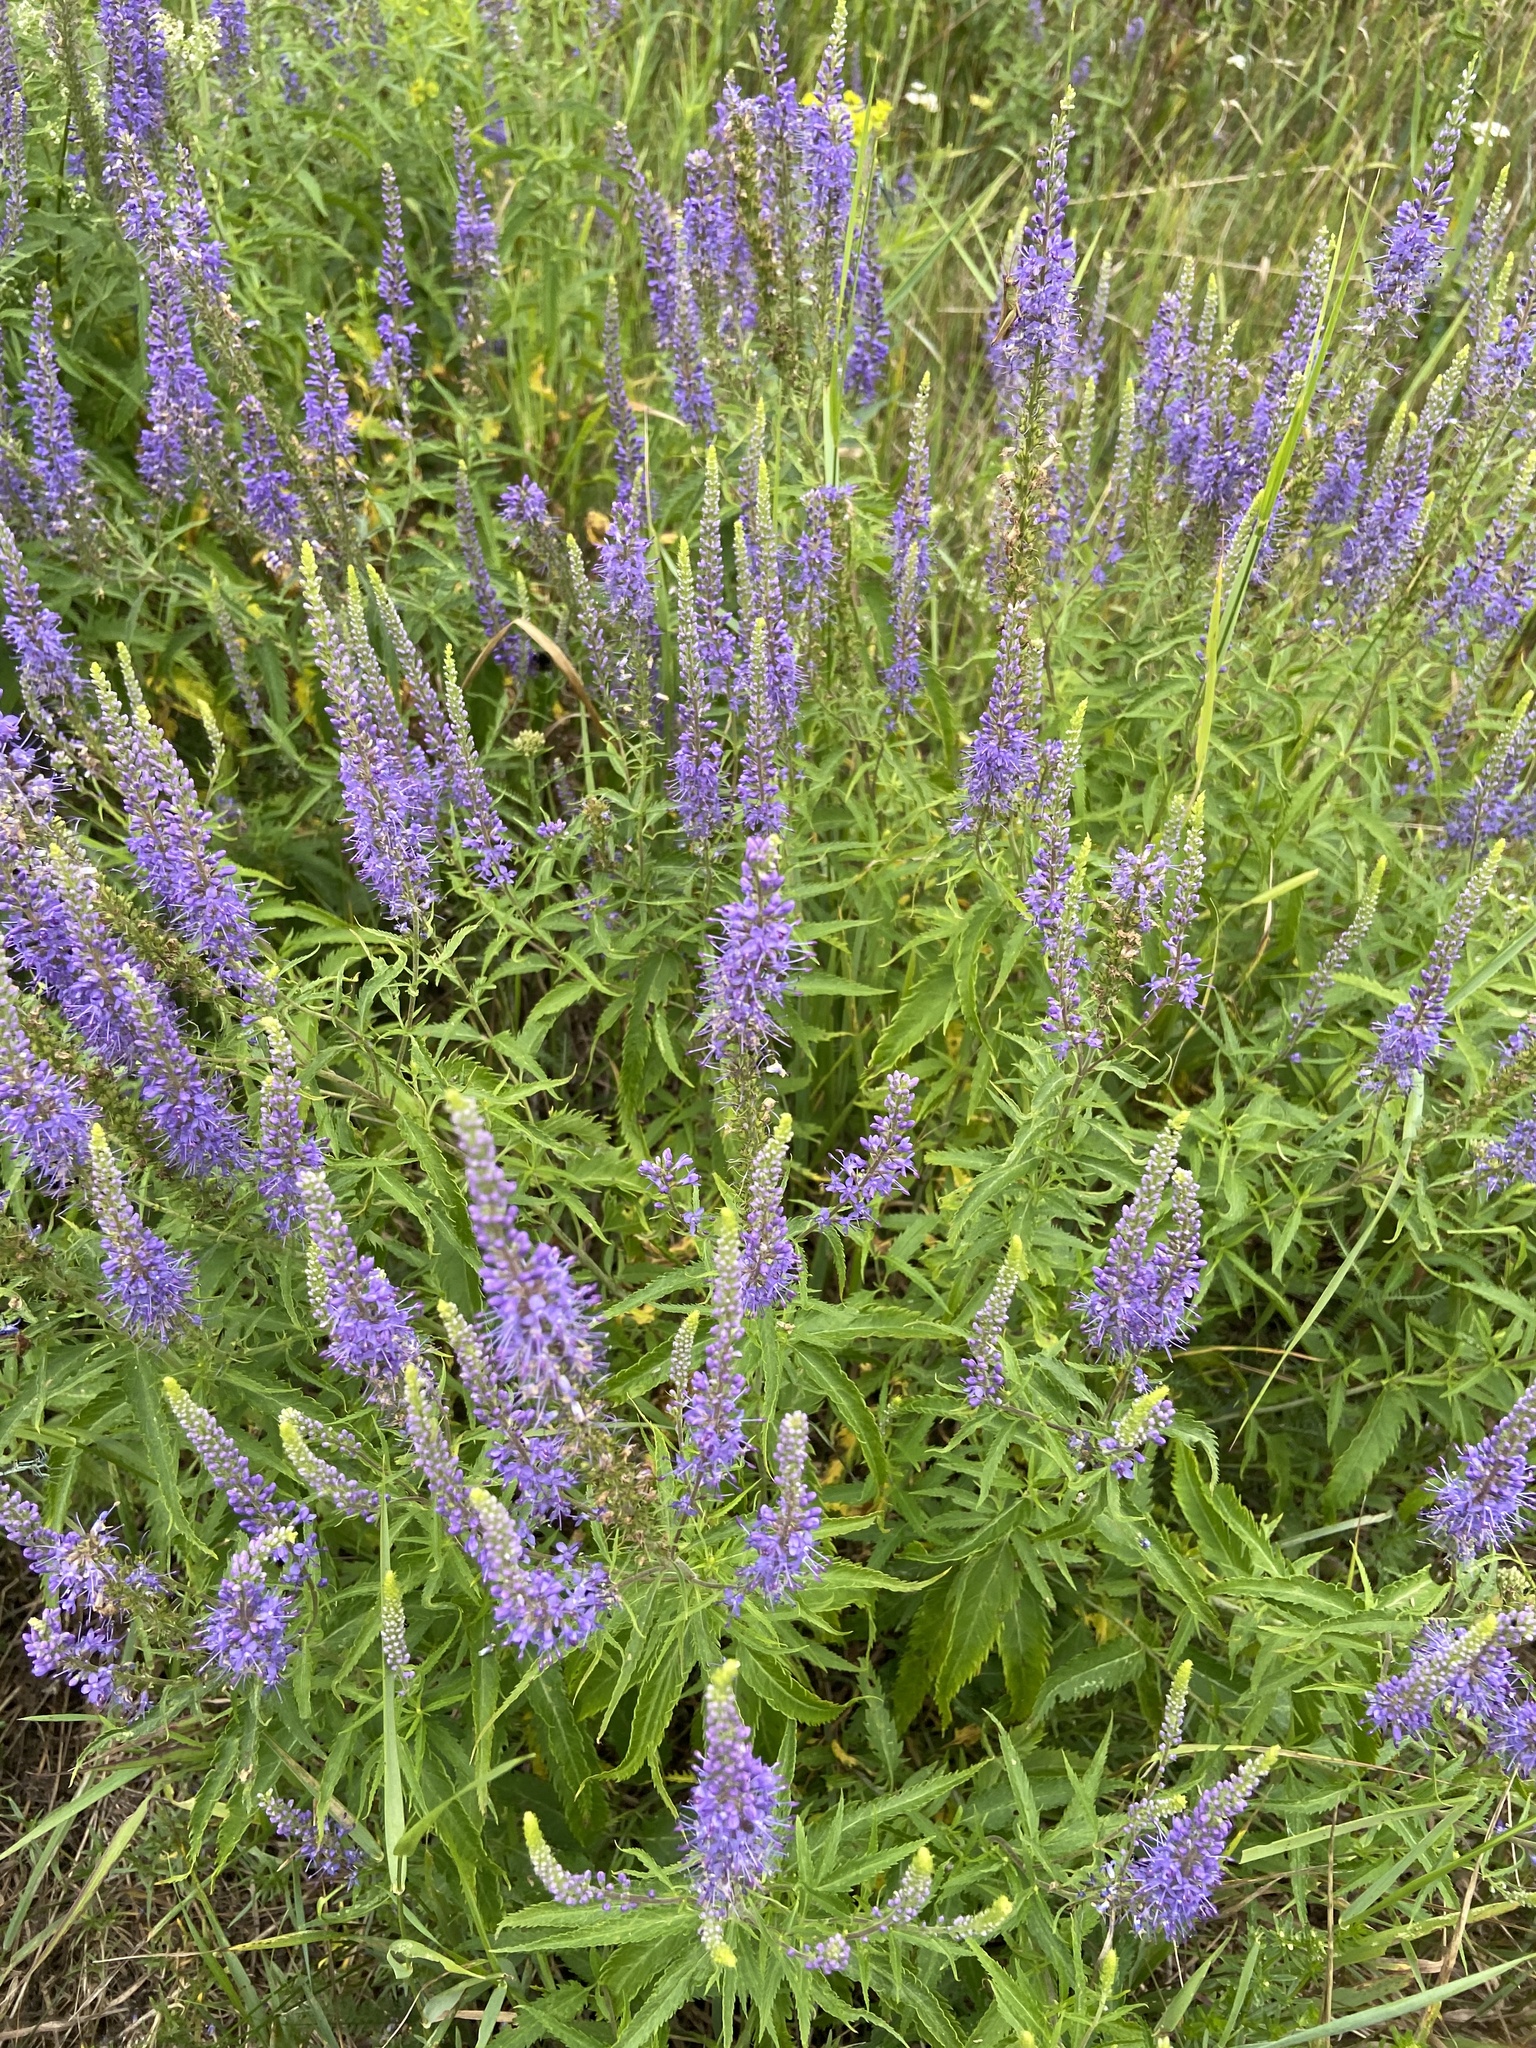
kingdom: Plantae
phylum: Tracheophyta
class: Magnoliopsida
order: Lamiales
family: Plantaginaceae
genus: Veronica
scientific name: Veronica longifolia
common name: Garden speedwell
